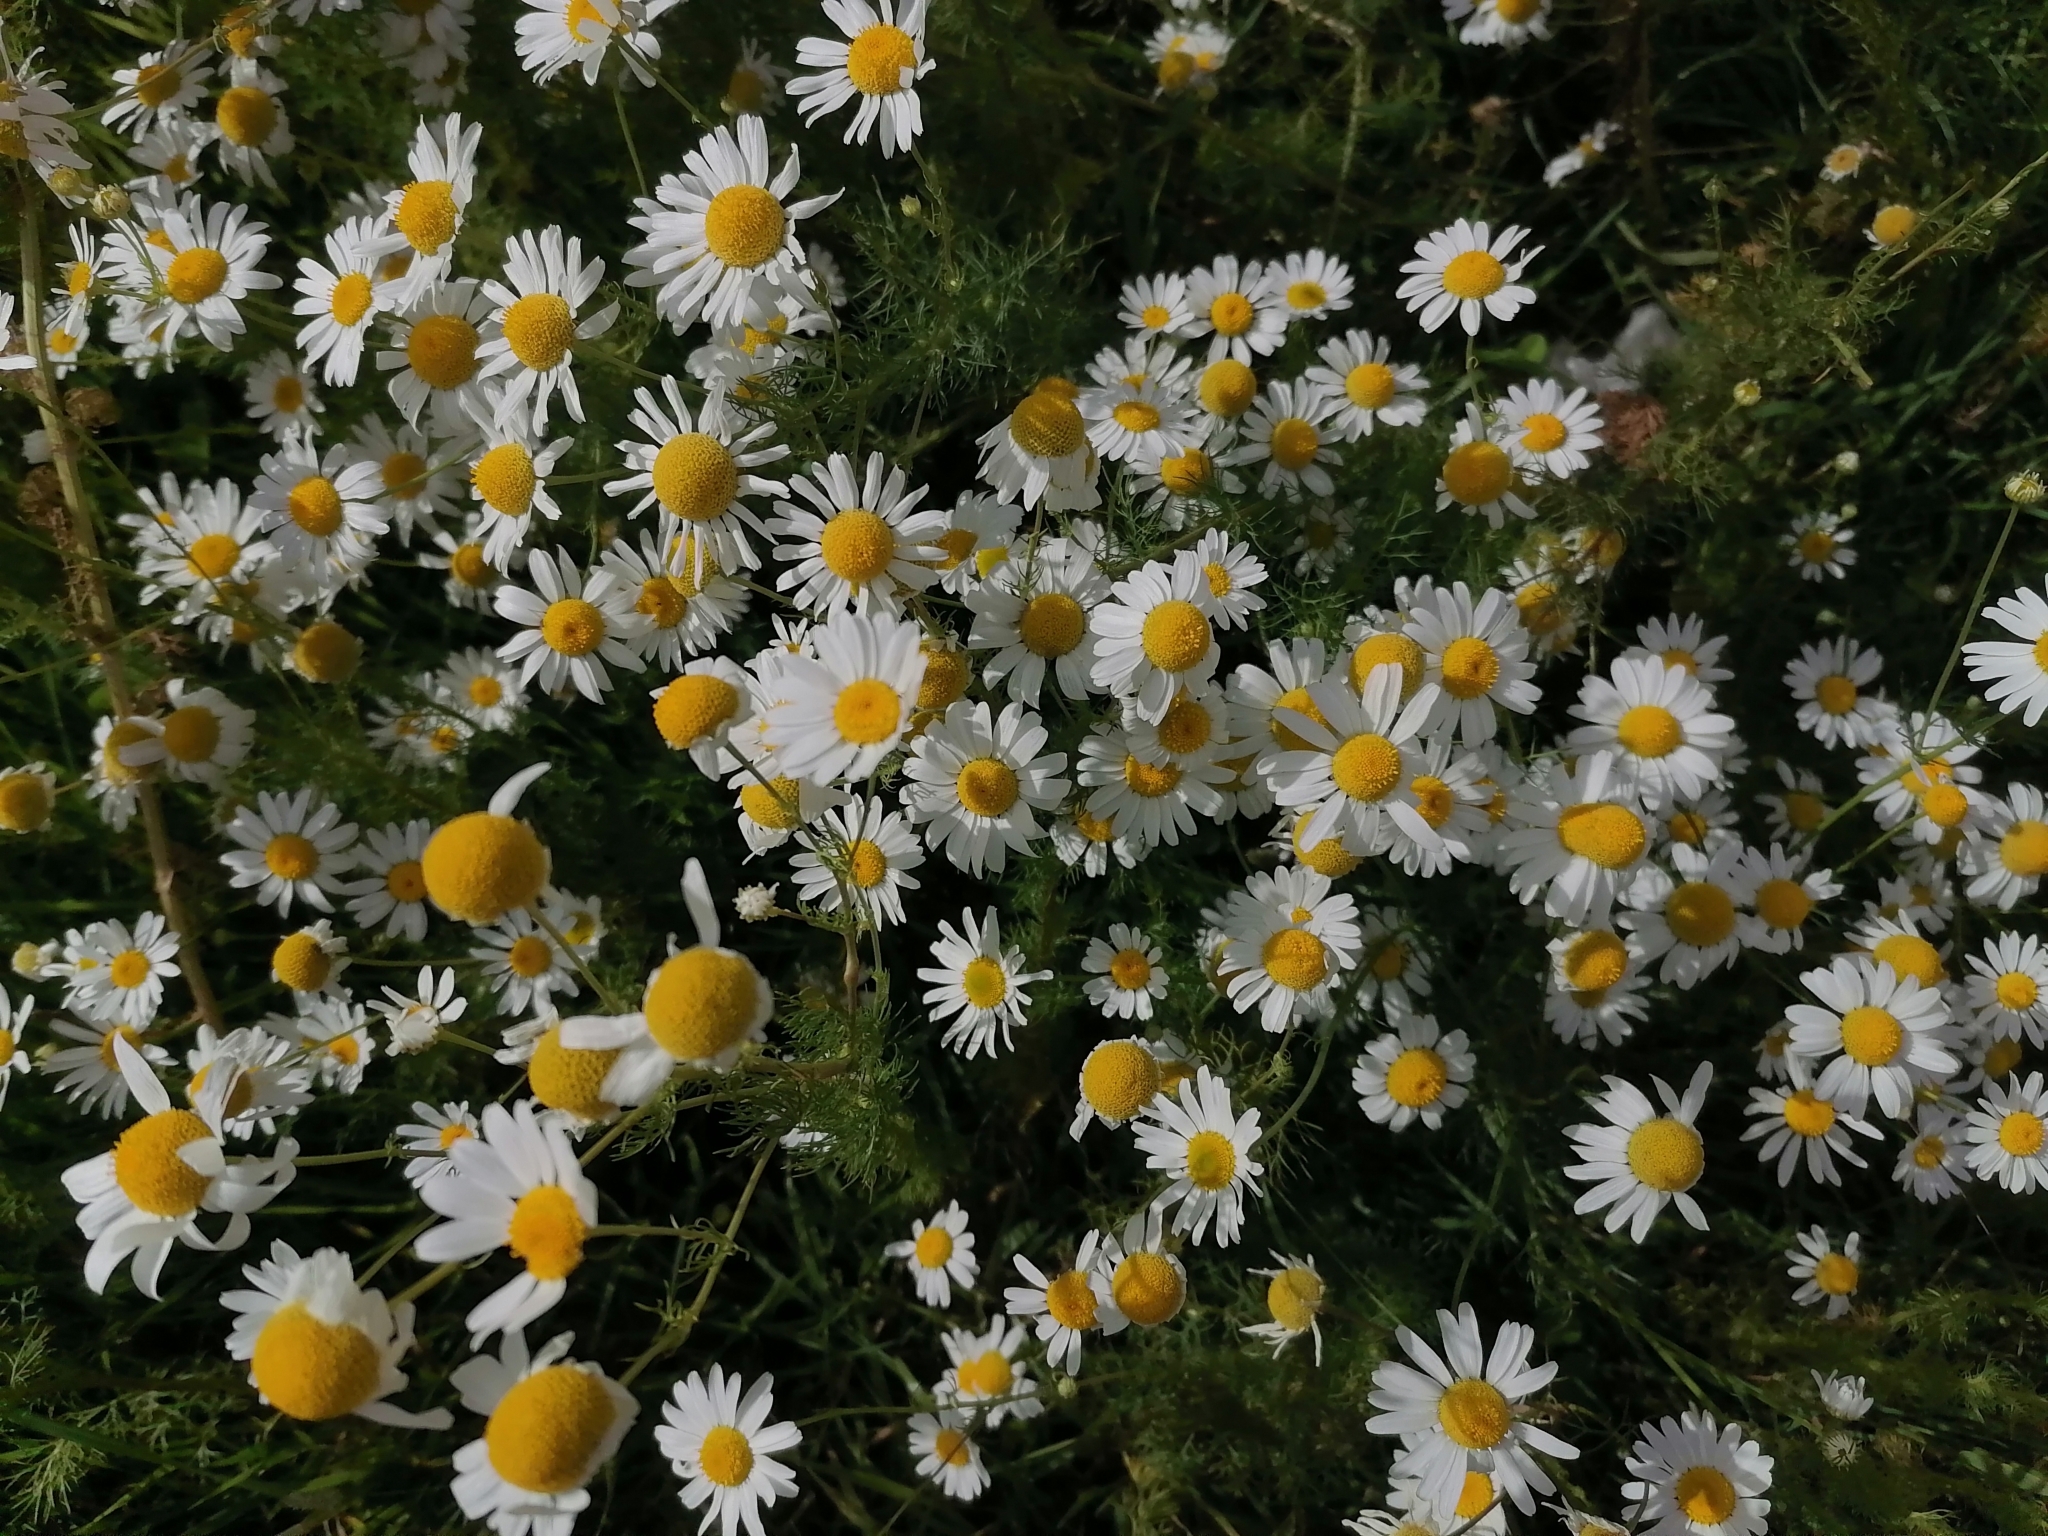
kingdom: Plantae
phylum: Tracheophyta
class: Magnoliopsida
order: Asterales
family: Asteraceae
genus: Tripleurospermum
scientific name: Tripleurospermum inodorum
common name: Scentless mayweed
